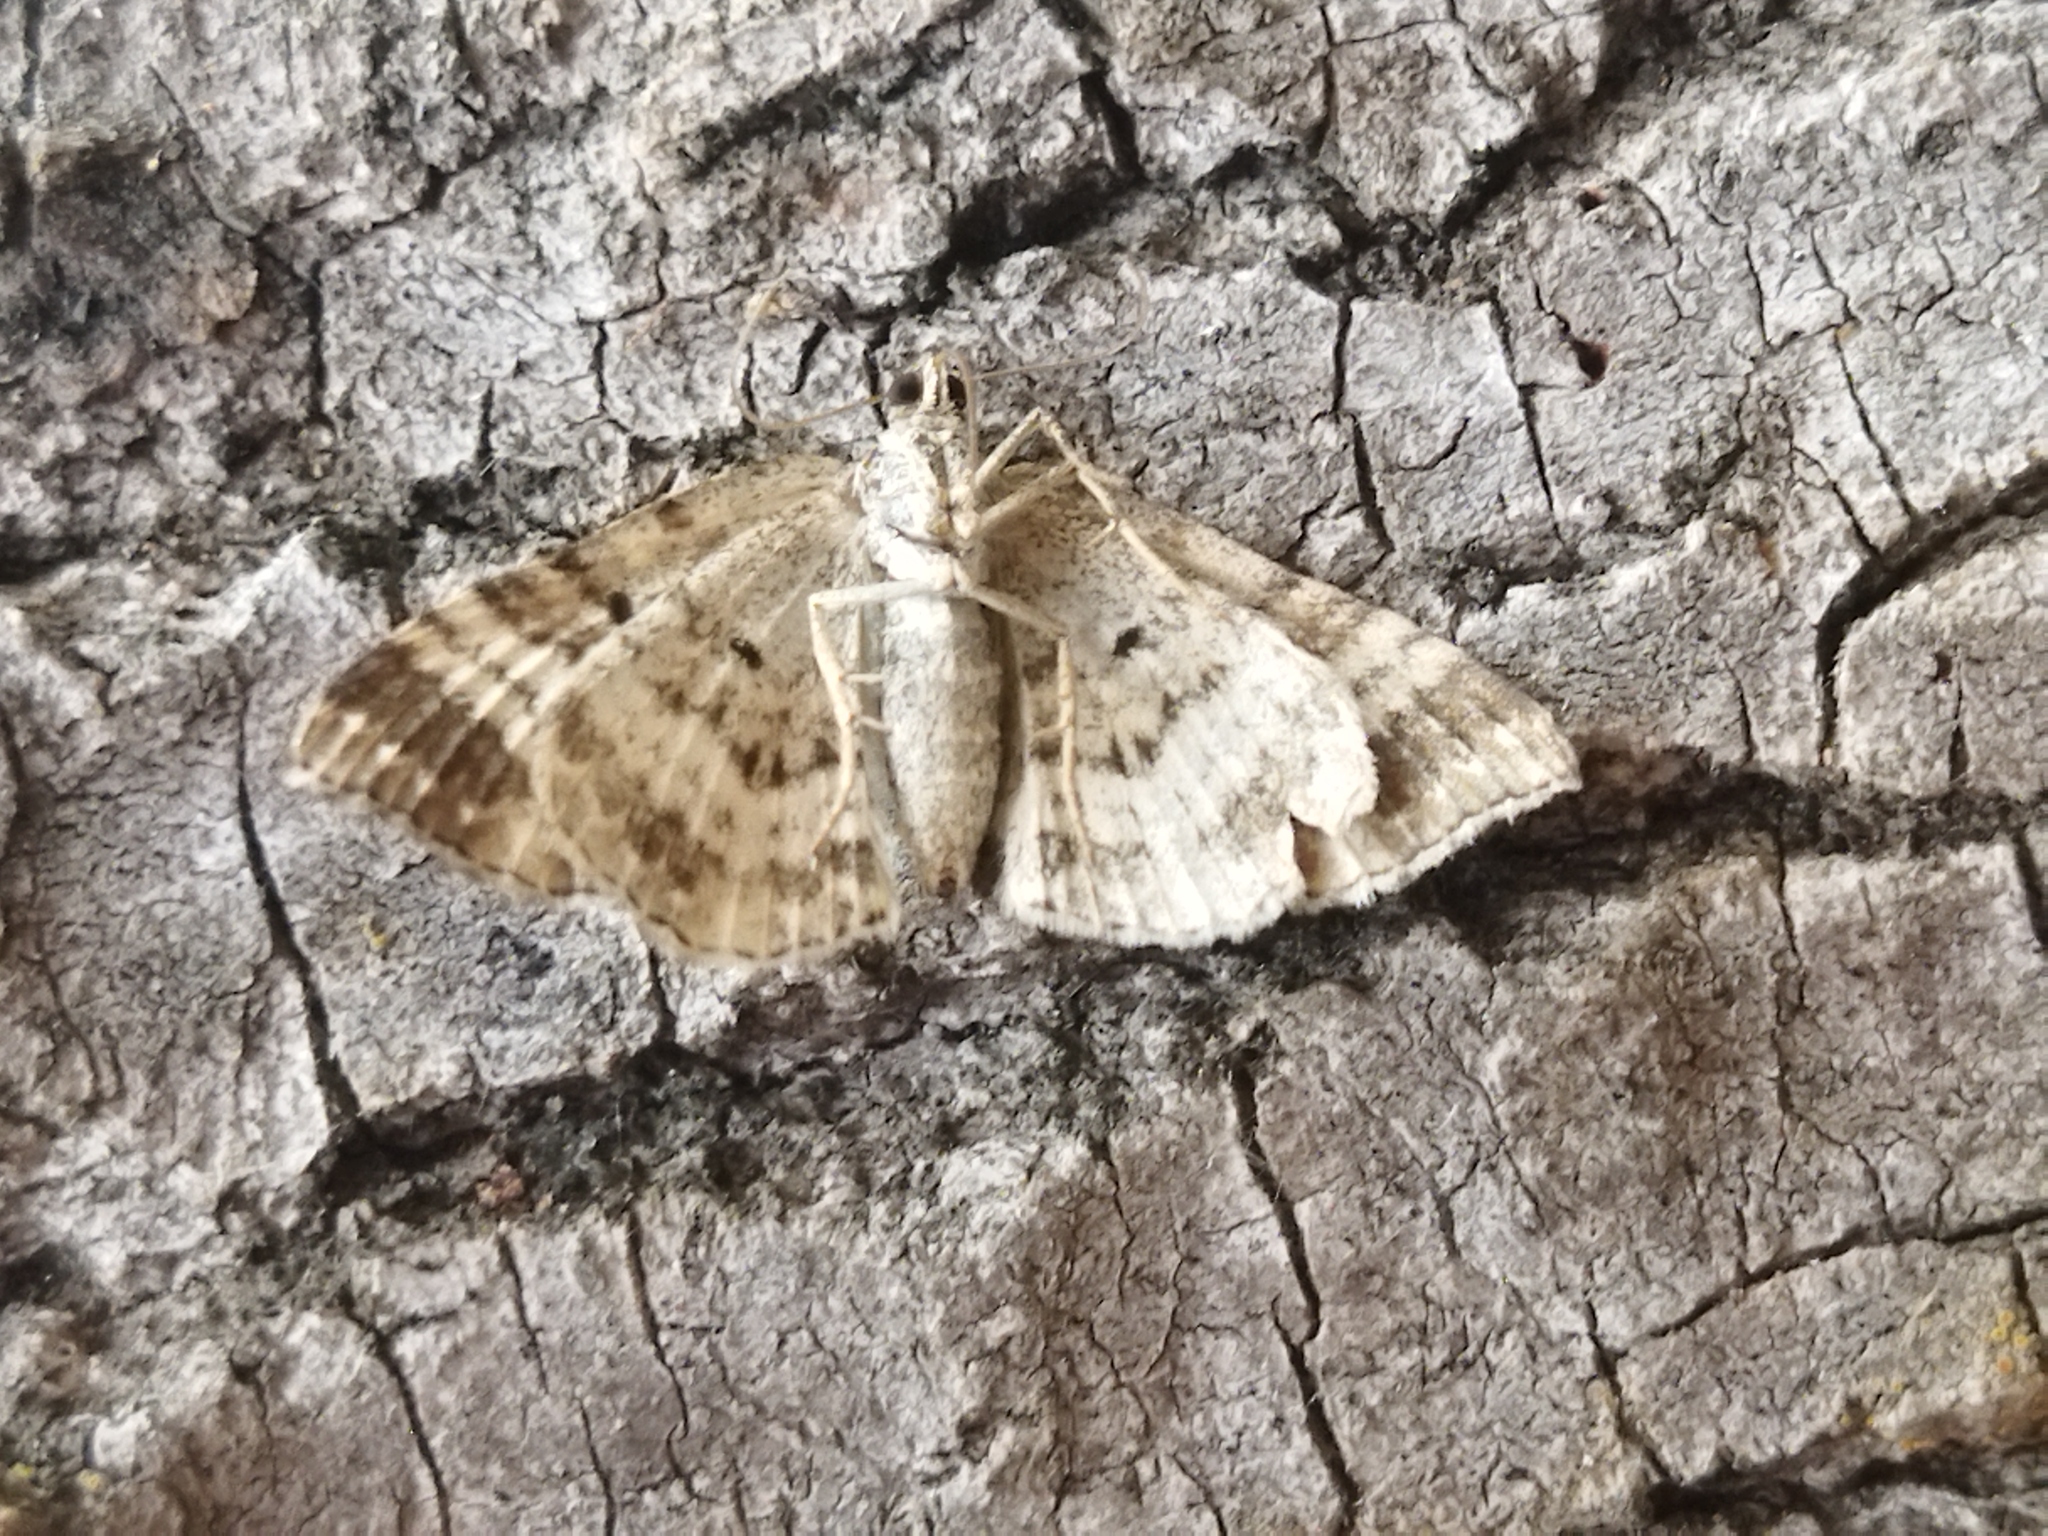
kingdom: Animalia
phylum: Arthropoda
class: Insecta
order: Lepidoptera
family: Geometridae
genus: Epirrhoe
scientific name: Epirrhoe alternata
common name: Common carpet
